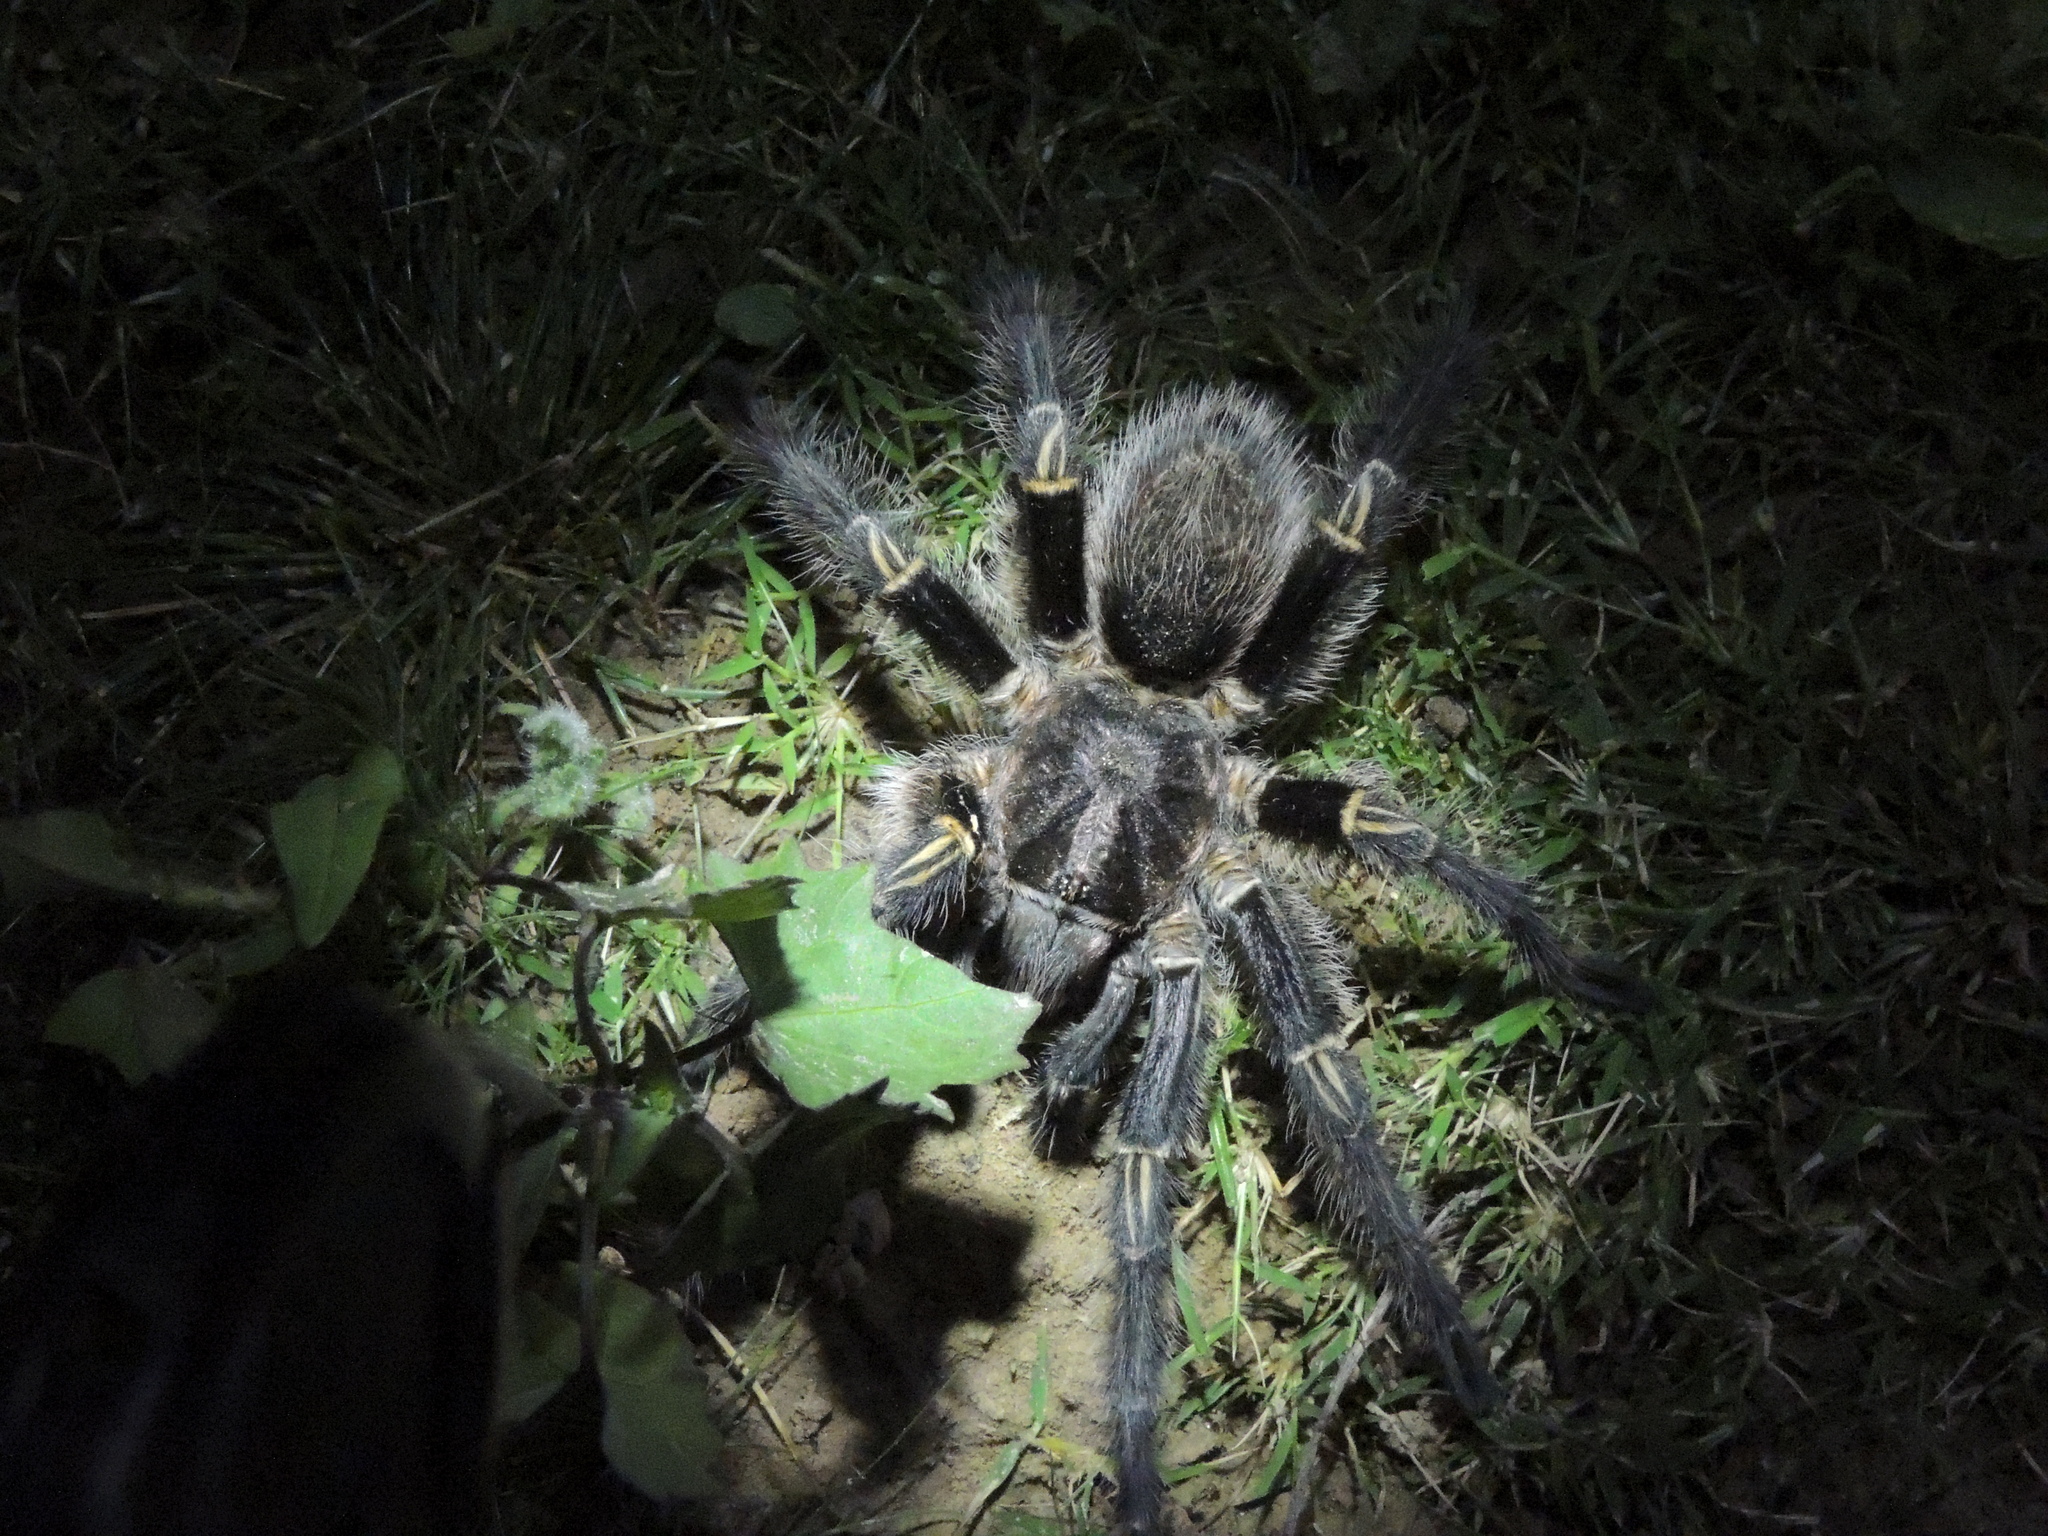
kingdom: Animalia
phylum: Arthropoda
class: Arachnida
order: Araneae
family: Theraphosidae
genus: Grammostola
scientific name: Grammostola pulchripes
